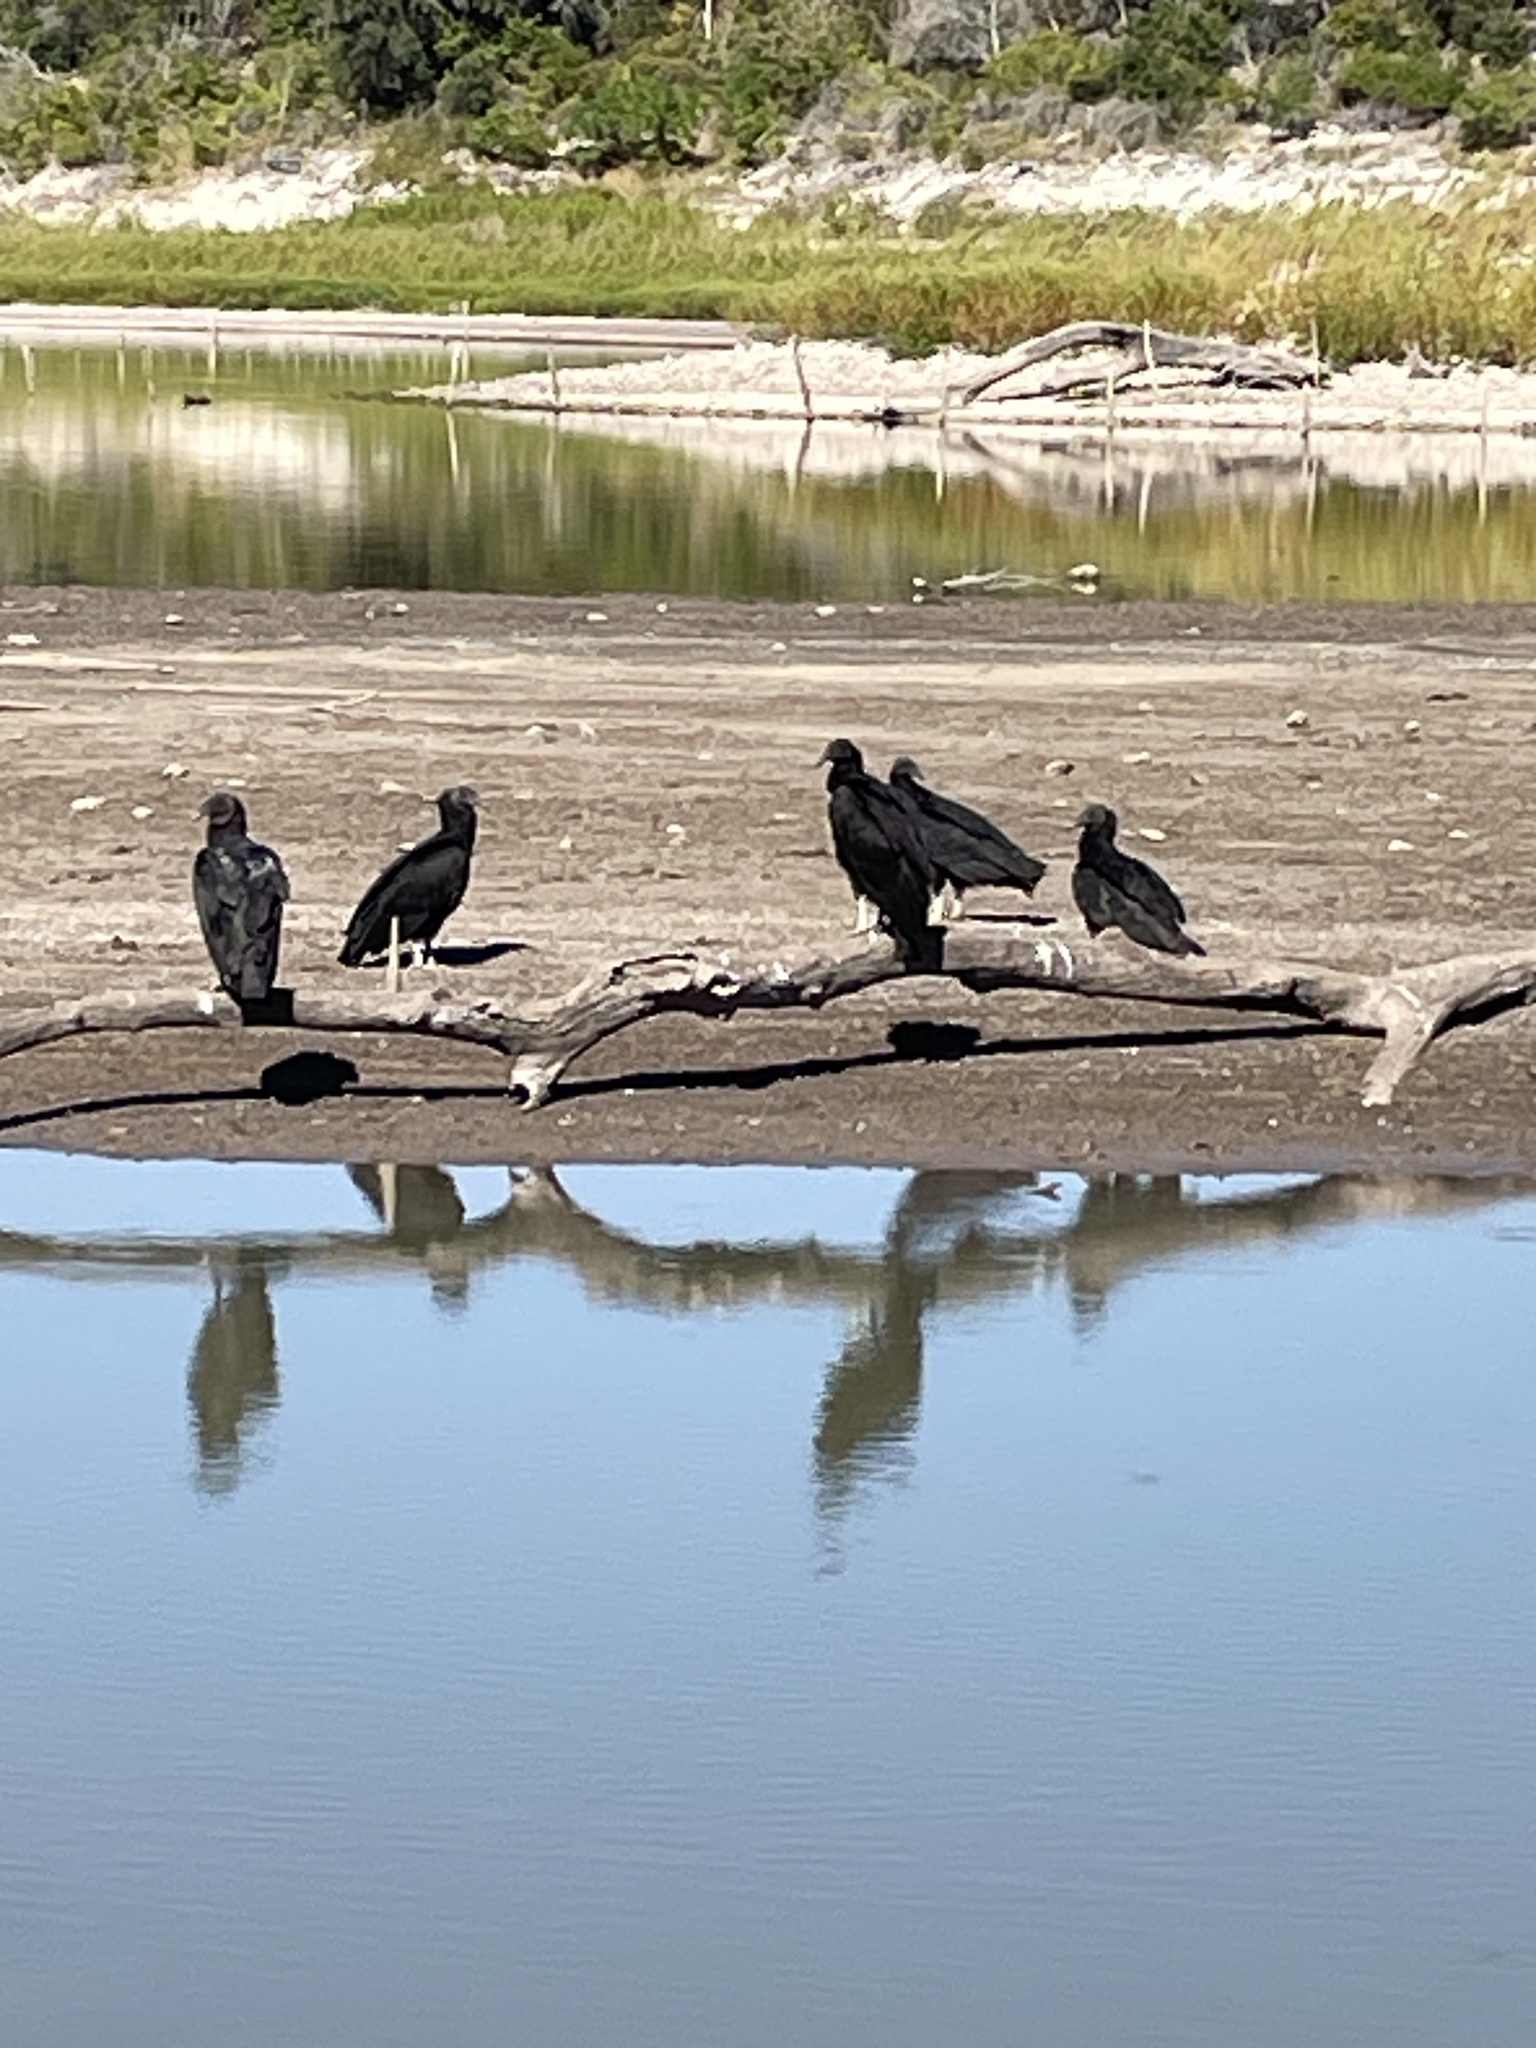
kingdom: Animalia
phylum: Chordata
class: Aves
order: Accipitriformes
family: Cathartidae
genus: Coragyps
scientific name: Coragyps atratus
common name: Black vulture
